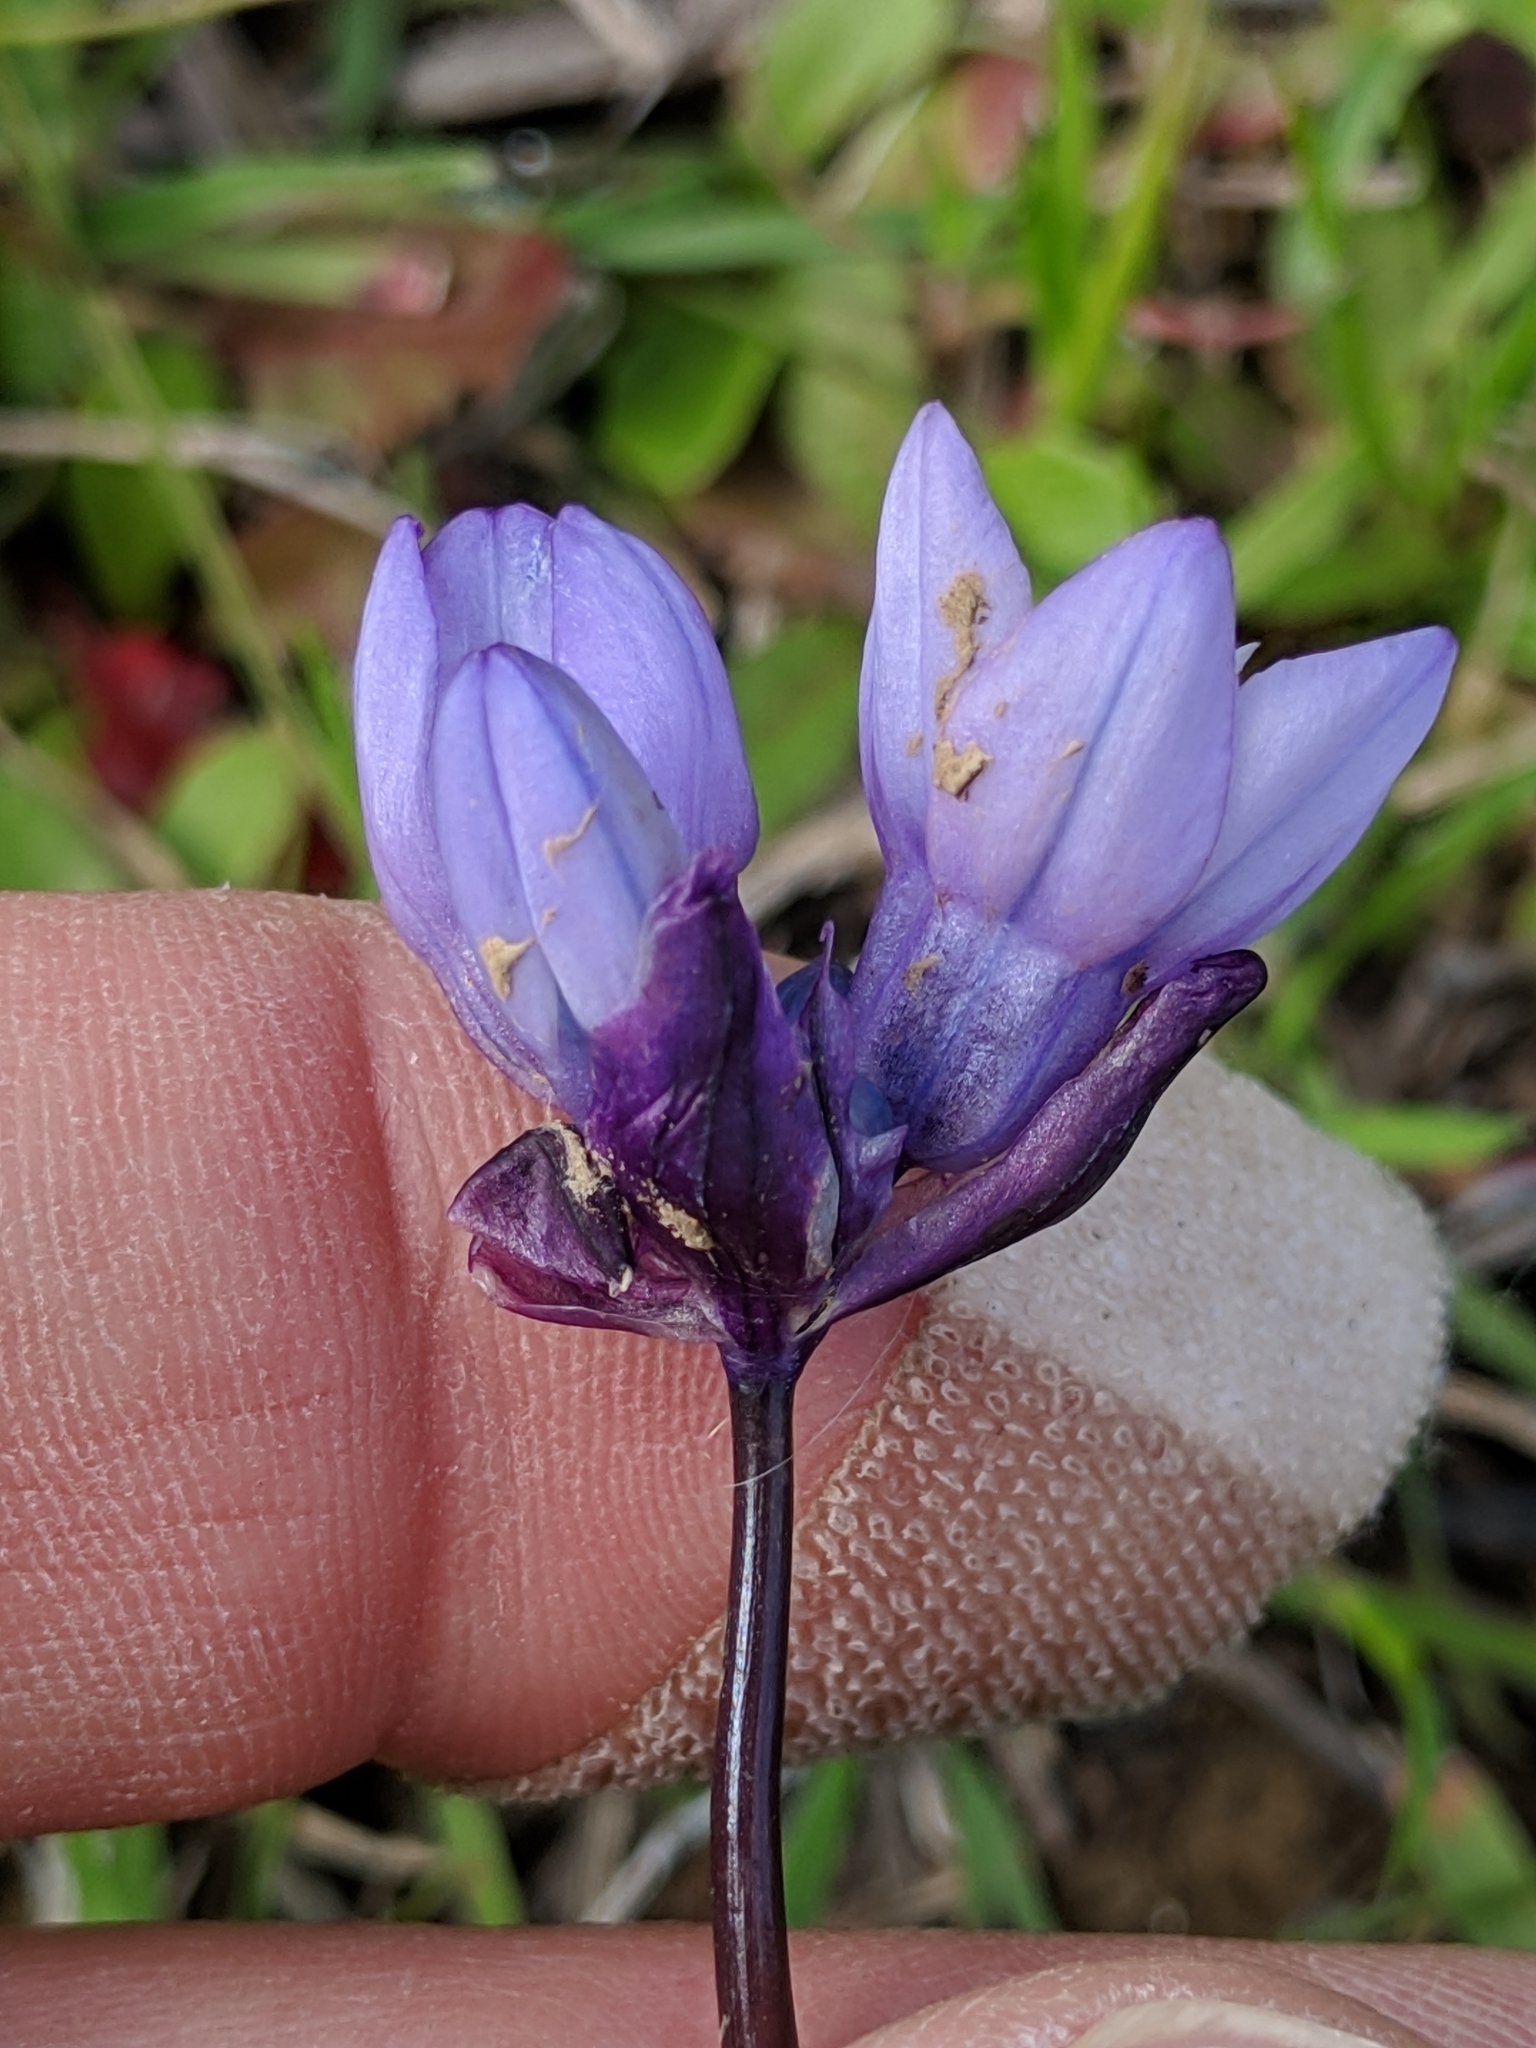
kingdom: Plantae
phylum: Tracheophyta
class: Liliopsida
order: Asparagales
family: Asparagaceae
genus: Dipterostemon
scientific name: Dipterostemon capitatus
